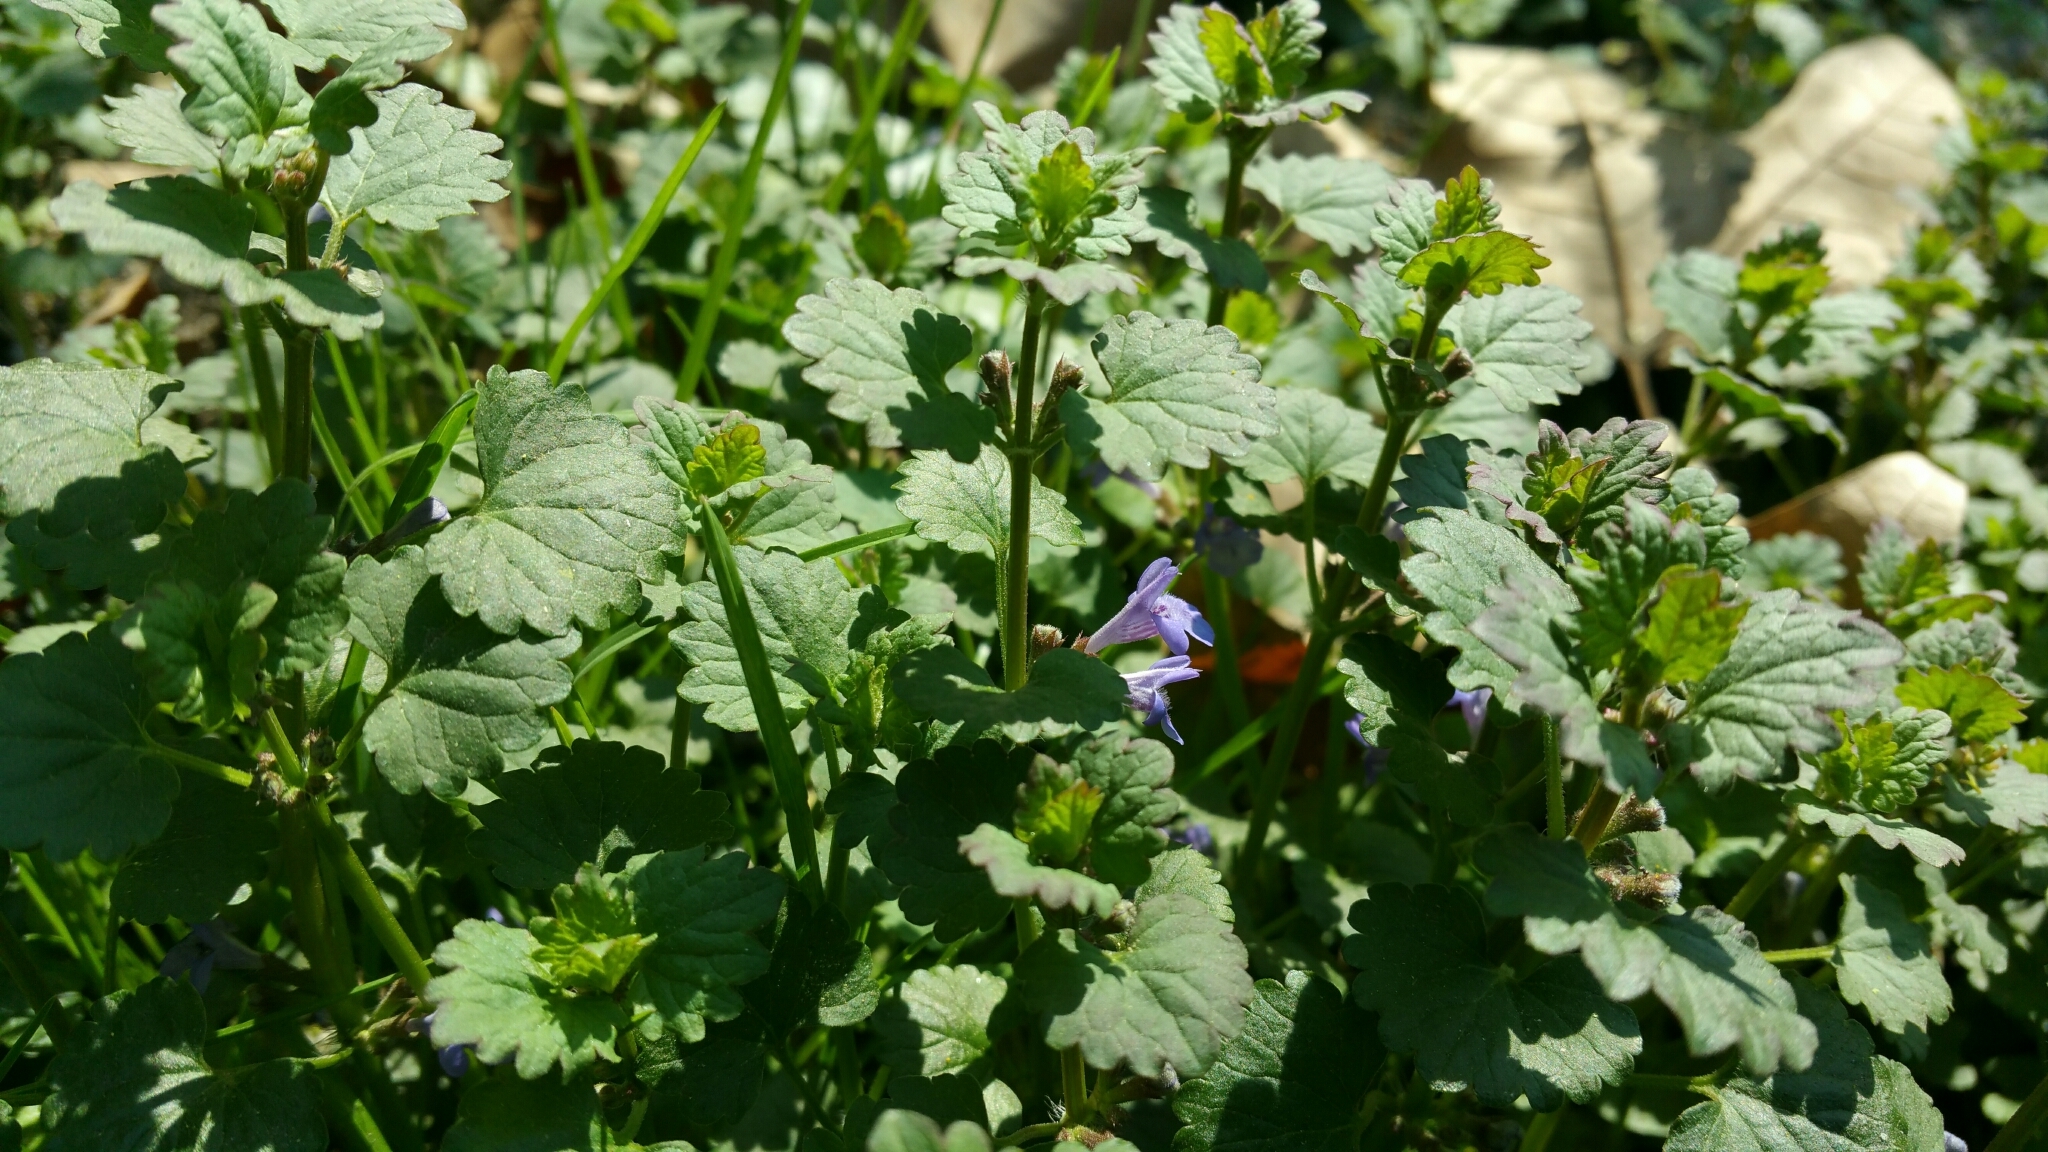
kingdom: Plantae
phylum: Tracheophyta
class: Magnoliopsida
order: Lamiales
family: Lamiaceae
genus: Glechoma
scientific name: Glechoma hederacea
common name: Ground ivy
